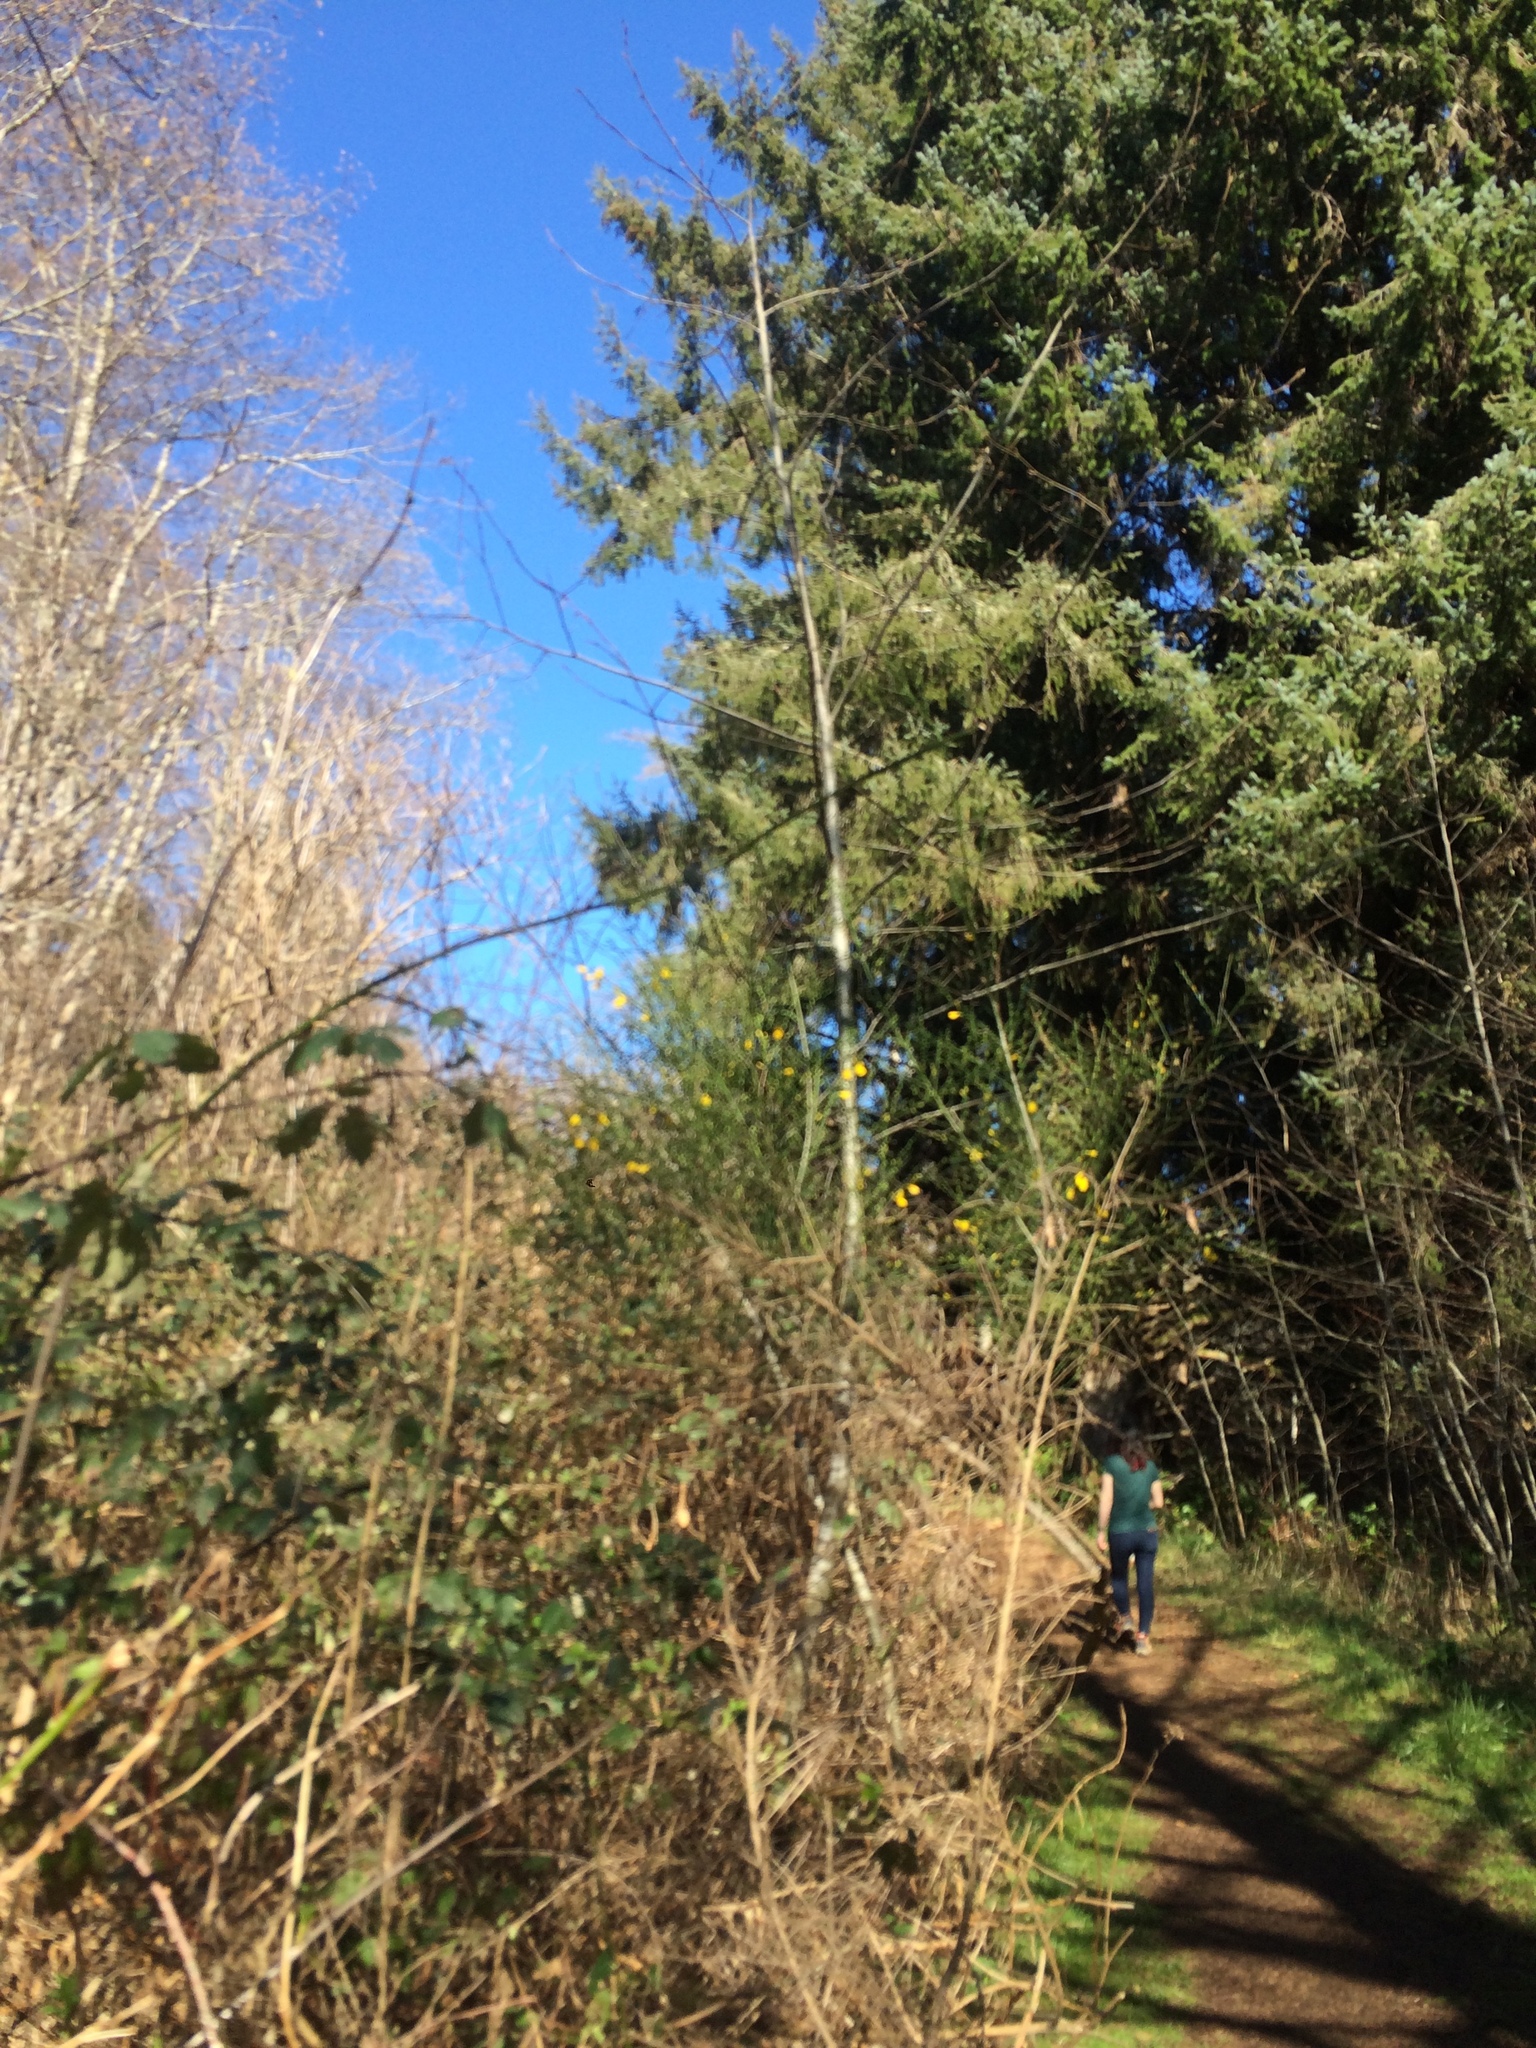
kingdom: Plantae
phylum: Tracheophyta
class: Magnoliopsida
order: Fabales
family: Fabaceae
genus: Cytisus
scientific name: Cytisus scoparius
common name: Scotch broom
